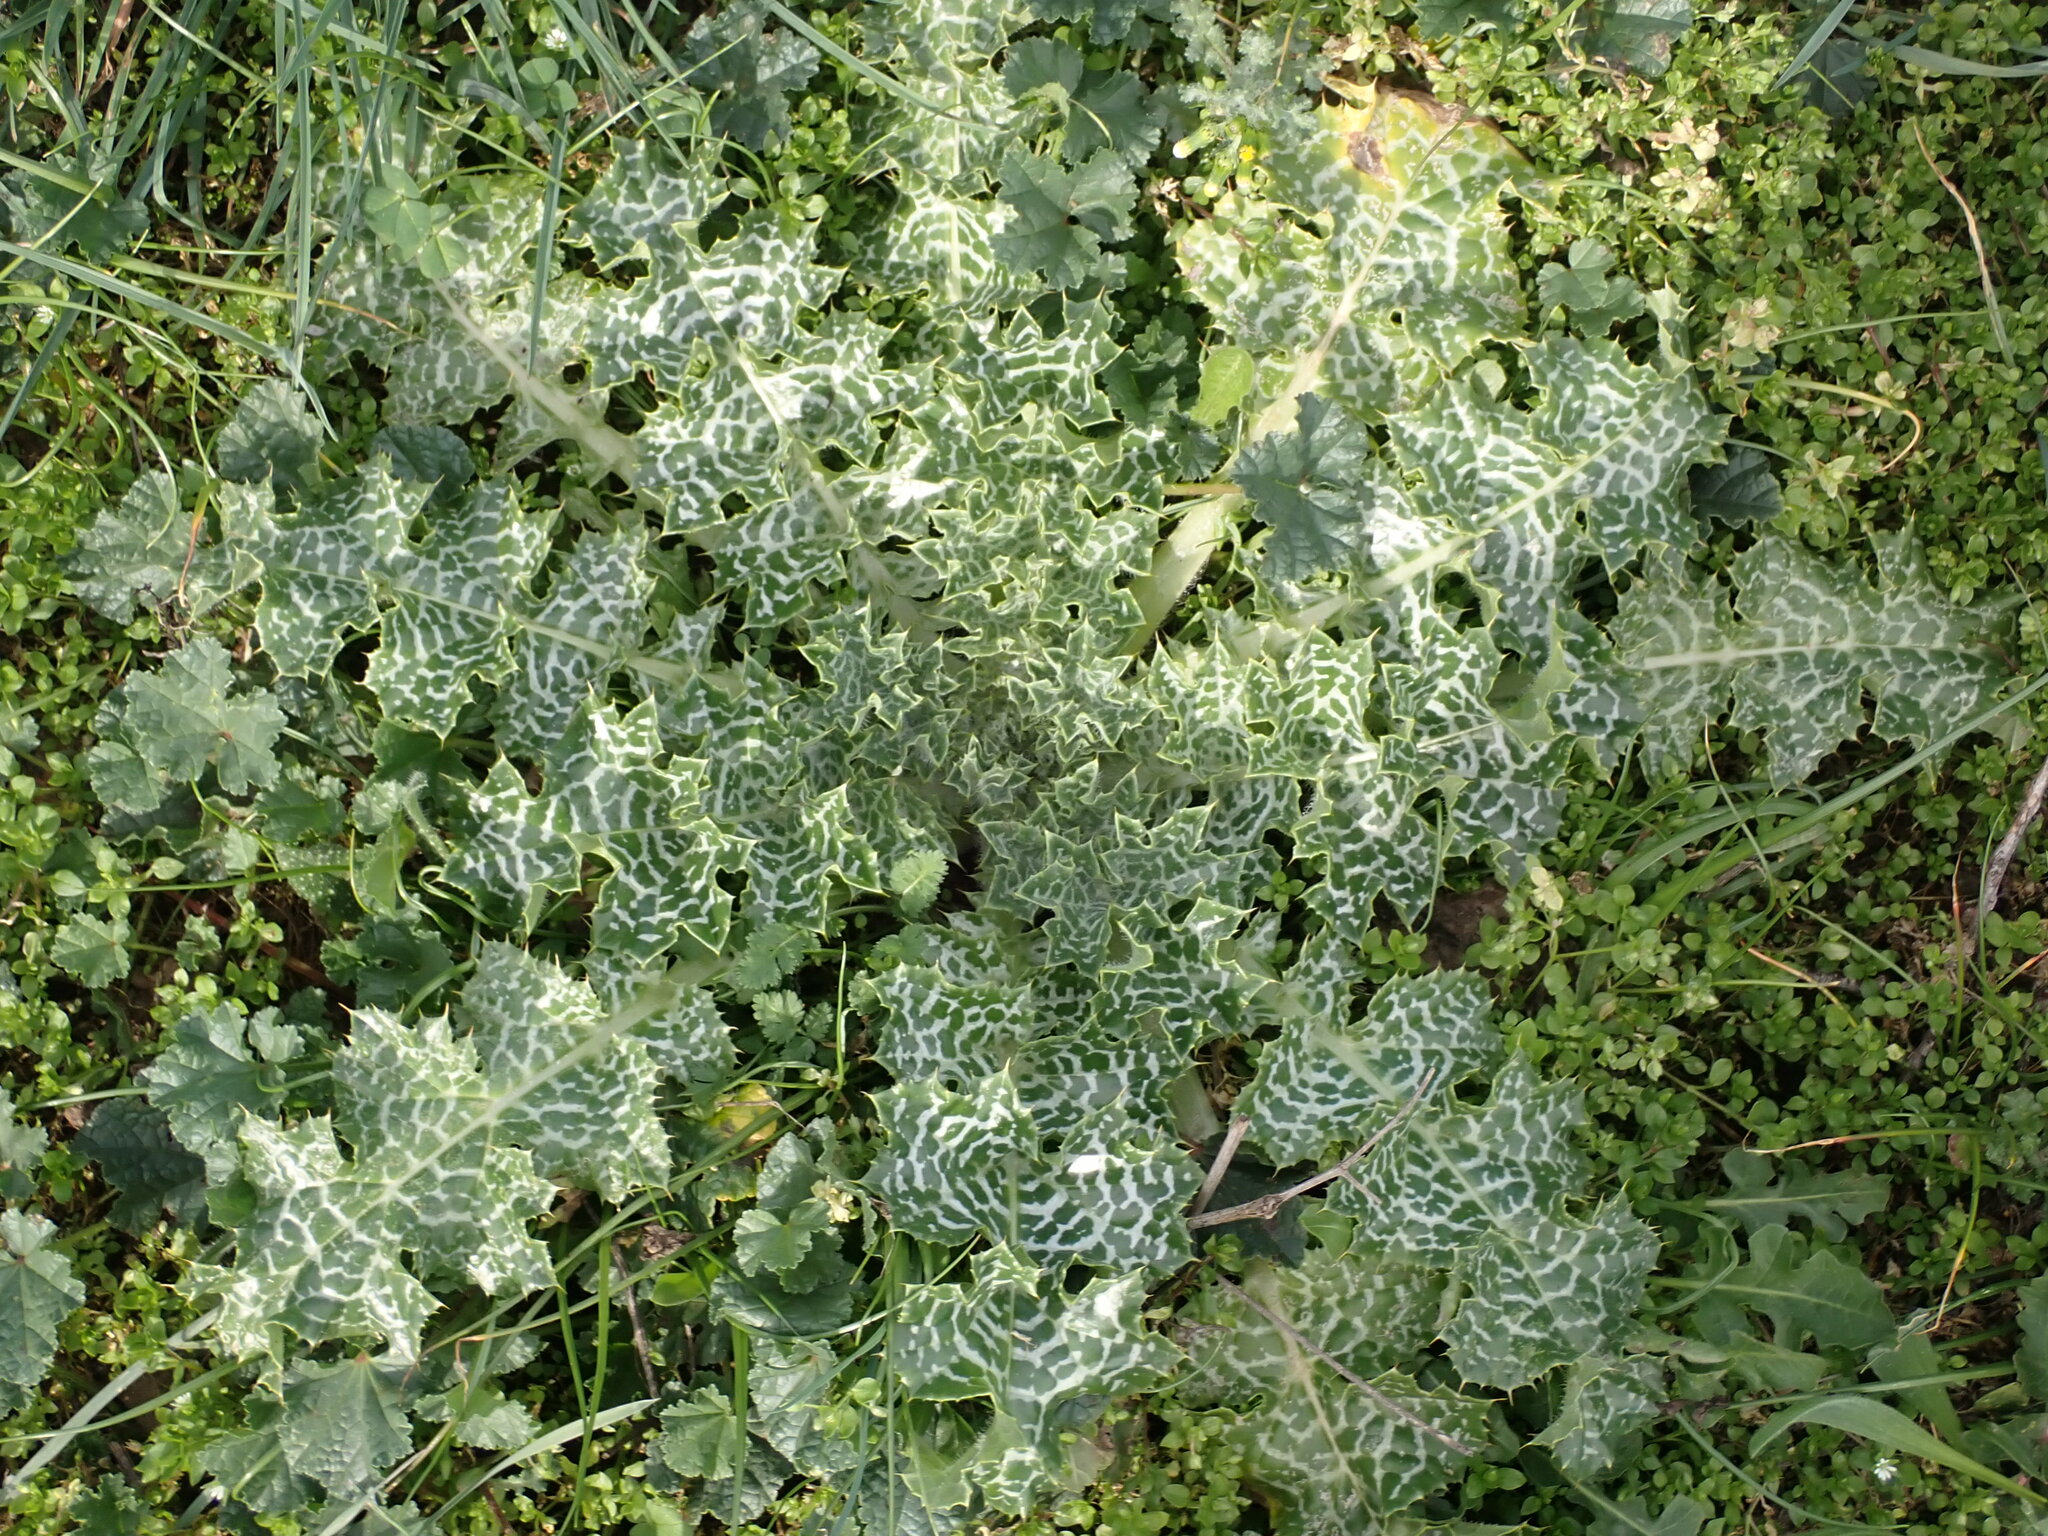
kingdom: Plantae
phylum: Tracheophyta
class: Magnoliopsida
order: Asterales
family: Asteraceae
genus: Silybum
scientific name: Silybum marianum
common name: Milk thistle
